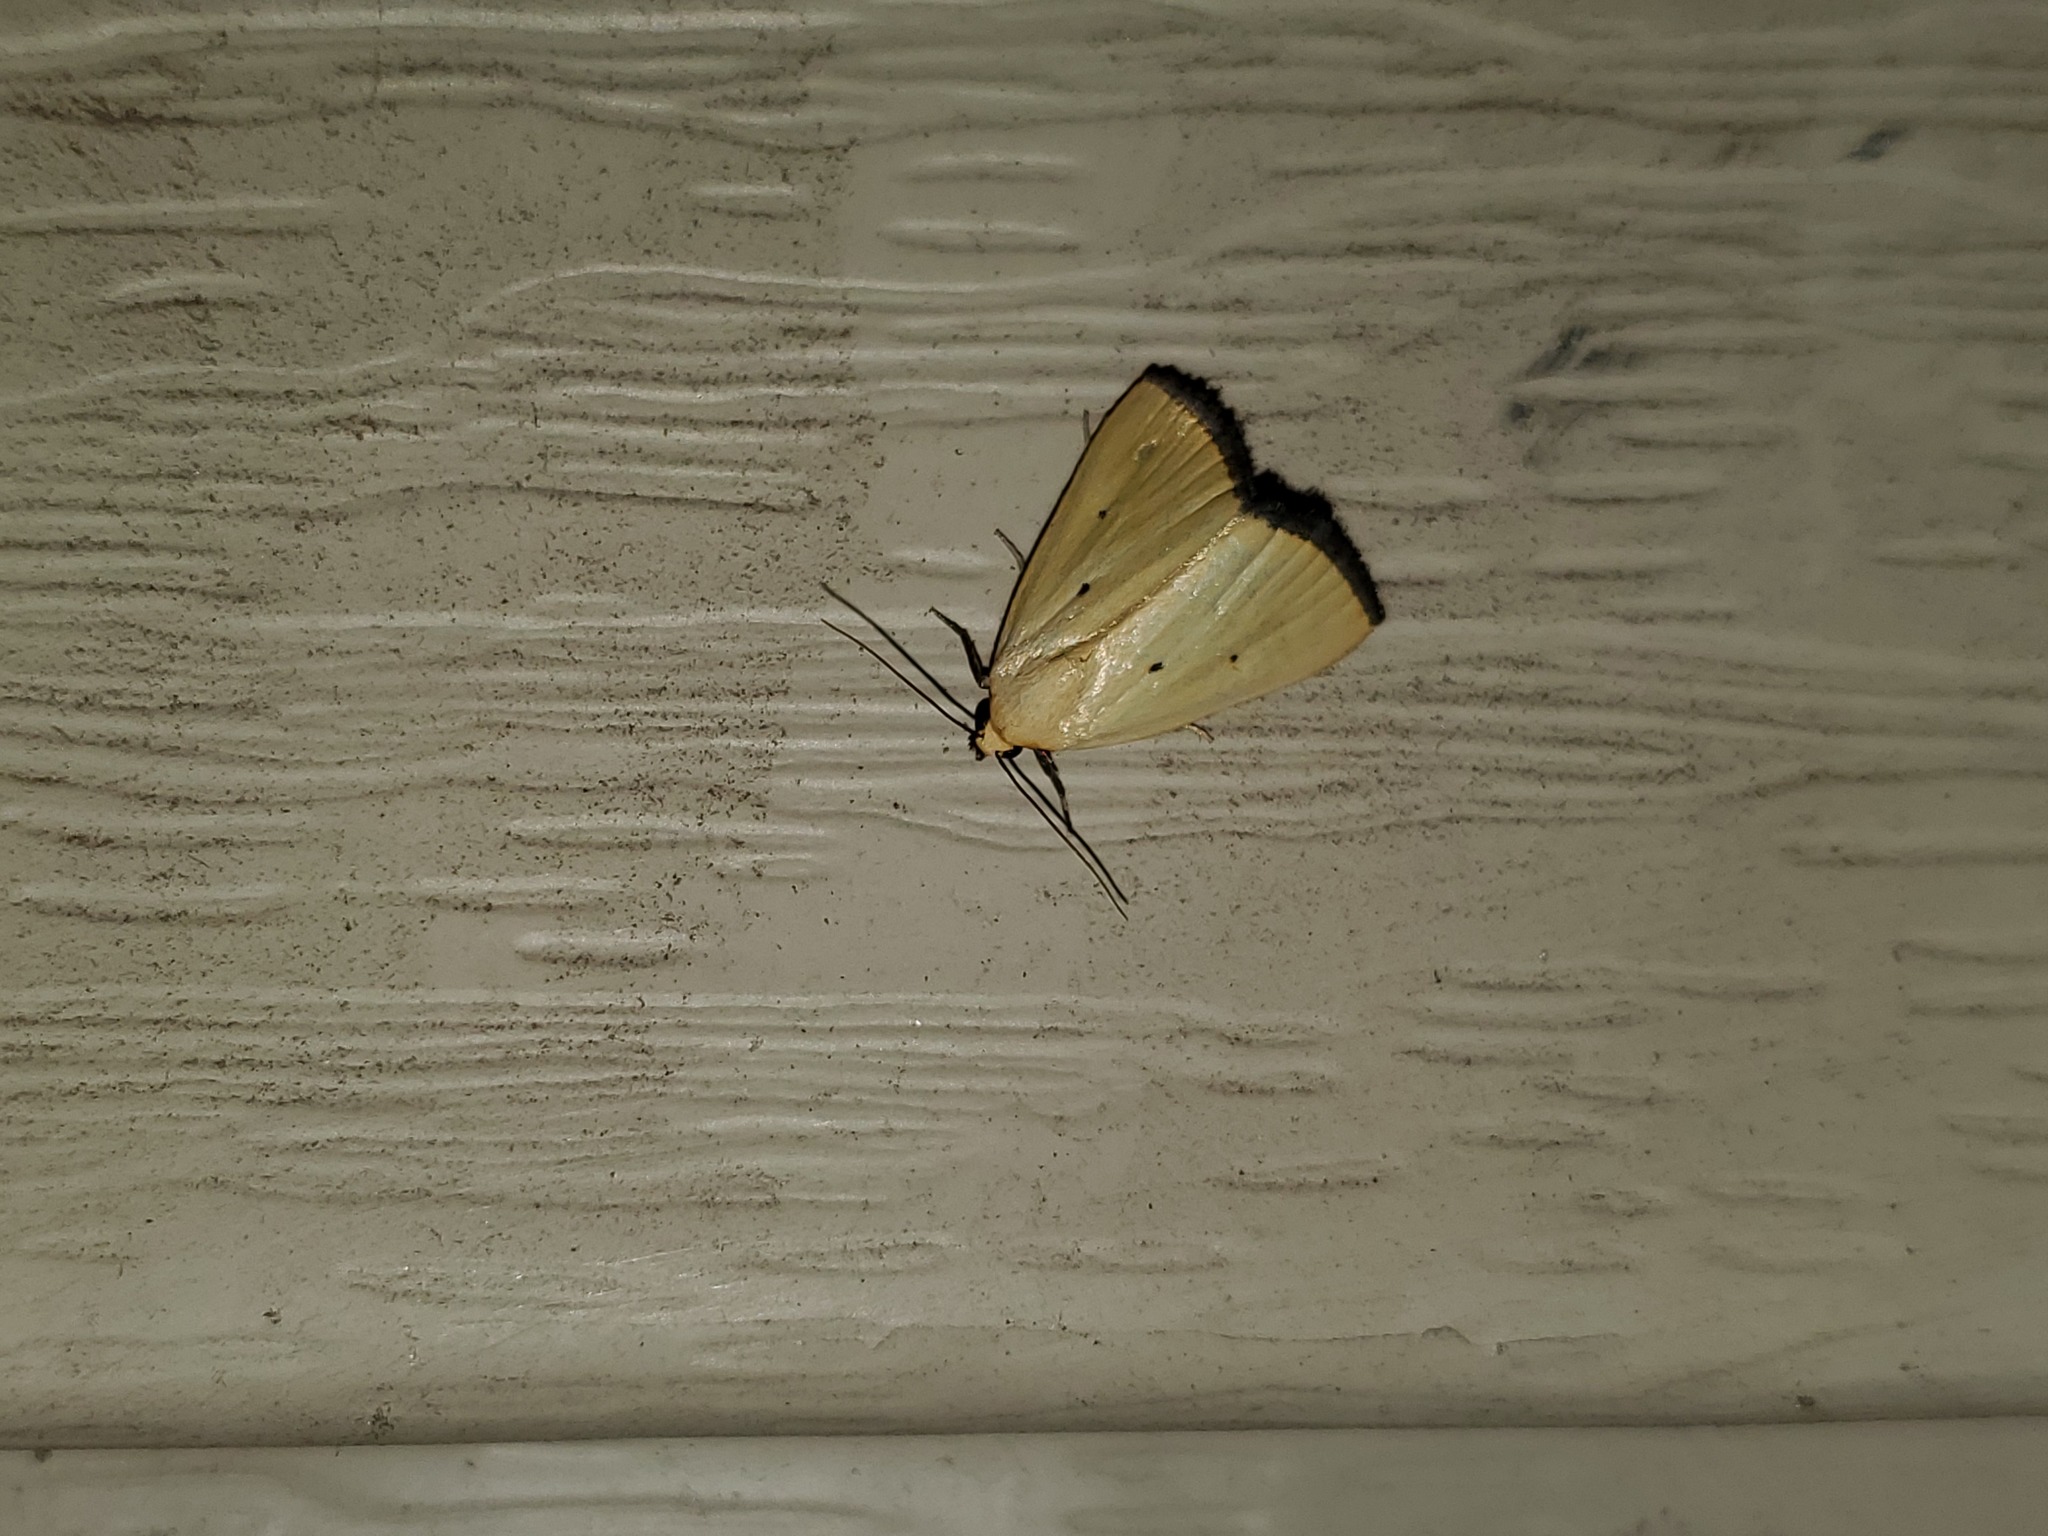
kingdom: Animalia
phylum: Arthropoda
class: Insecta
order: Lepidoptera
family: Noctuidae
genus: Marimatha
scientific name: Marimatha nigrofimbria
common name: Black-bordered lemon moth
